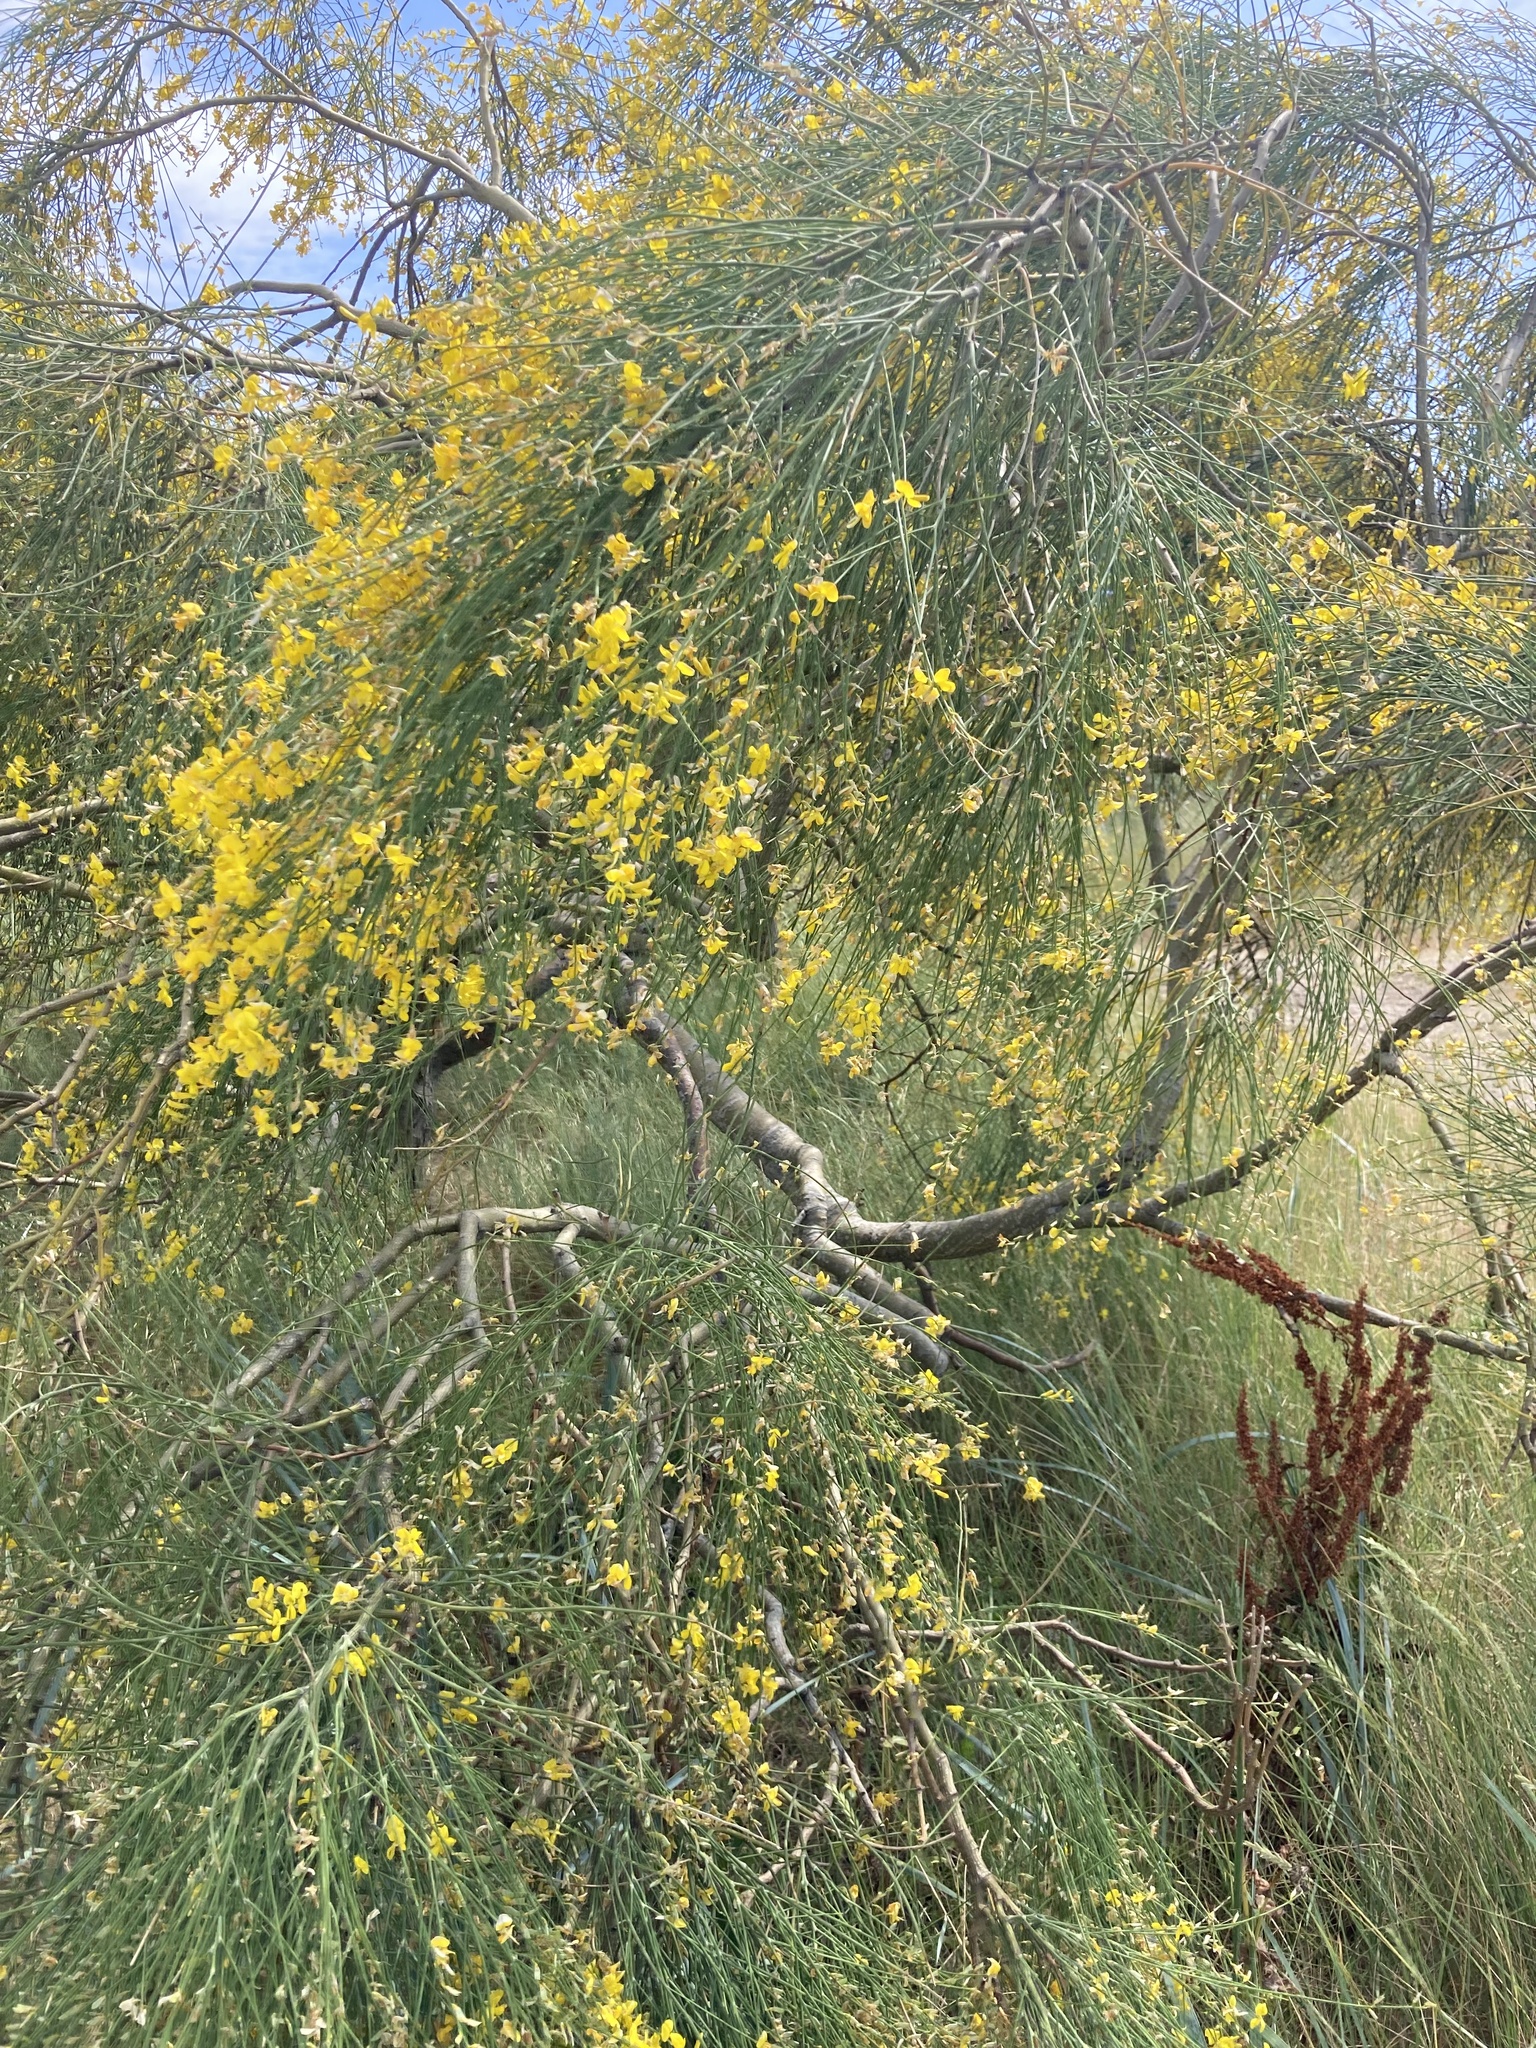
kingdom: Plantae
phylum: Tracheophyta
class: Magnoliopsida
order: Fabales
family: Fabaceae
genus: Spartium
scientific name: Spartium junceum
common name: Spanish broom
